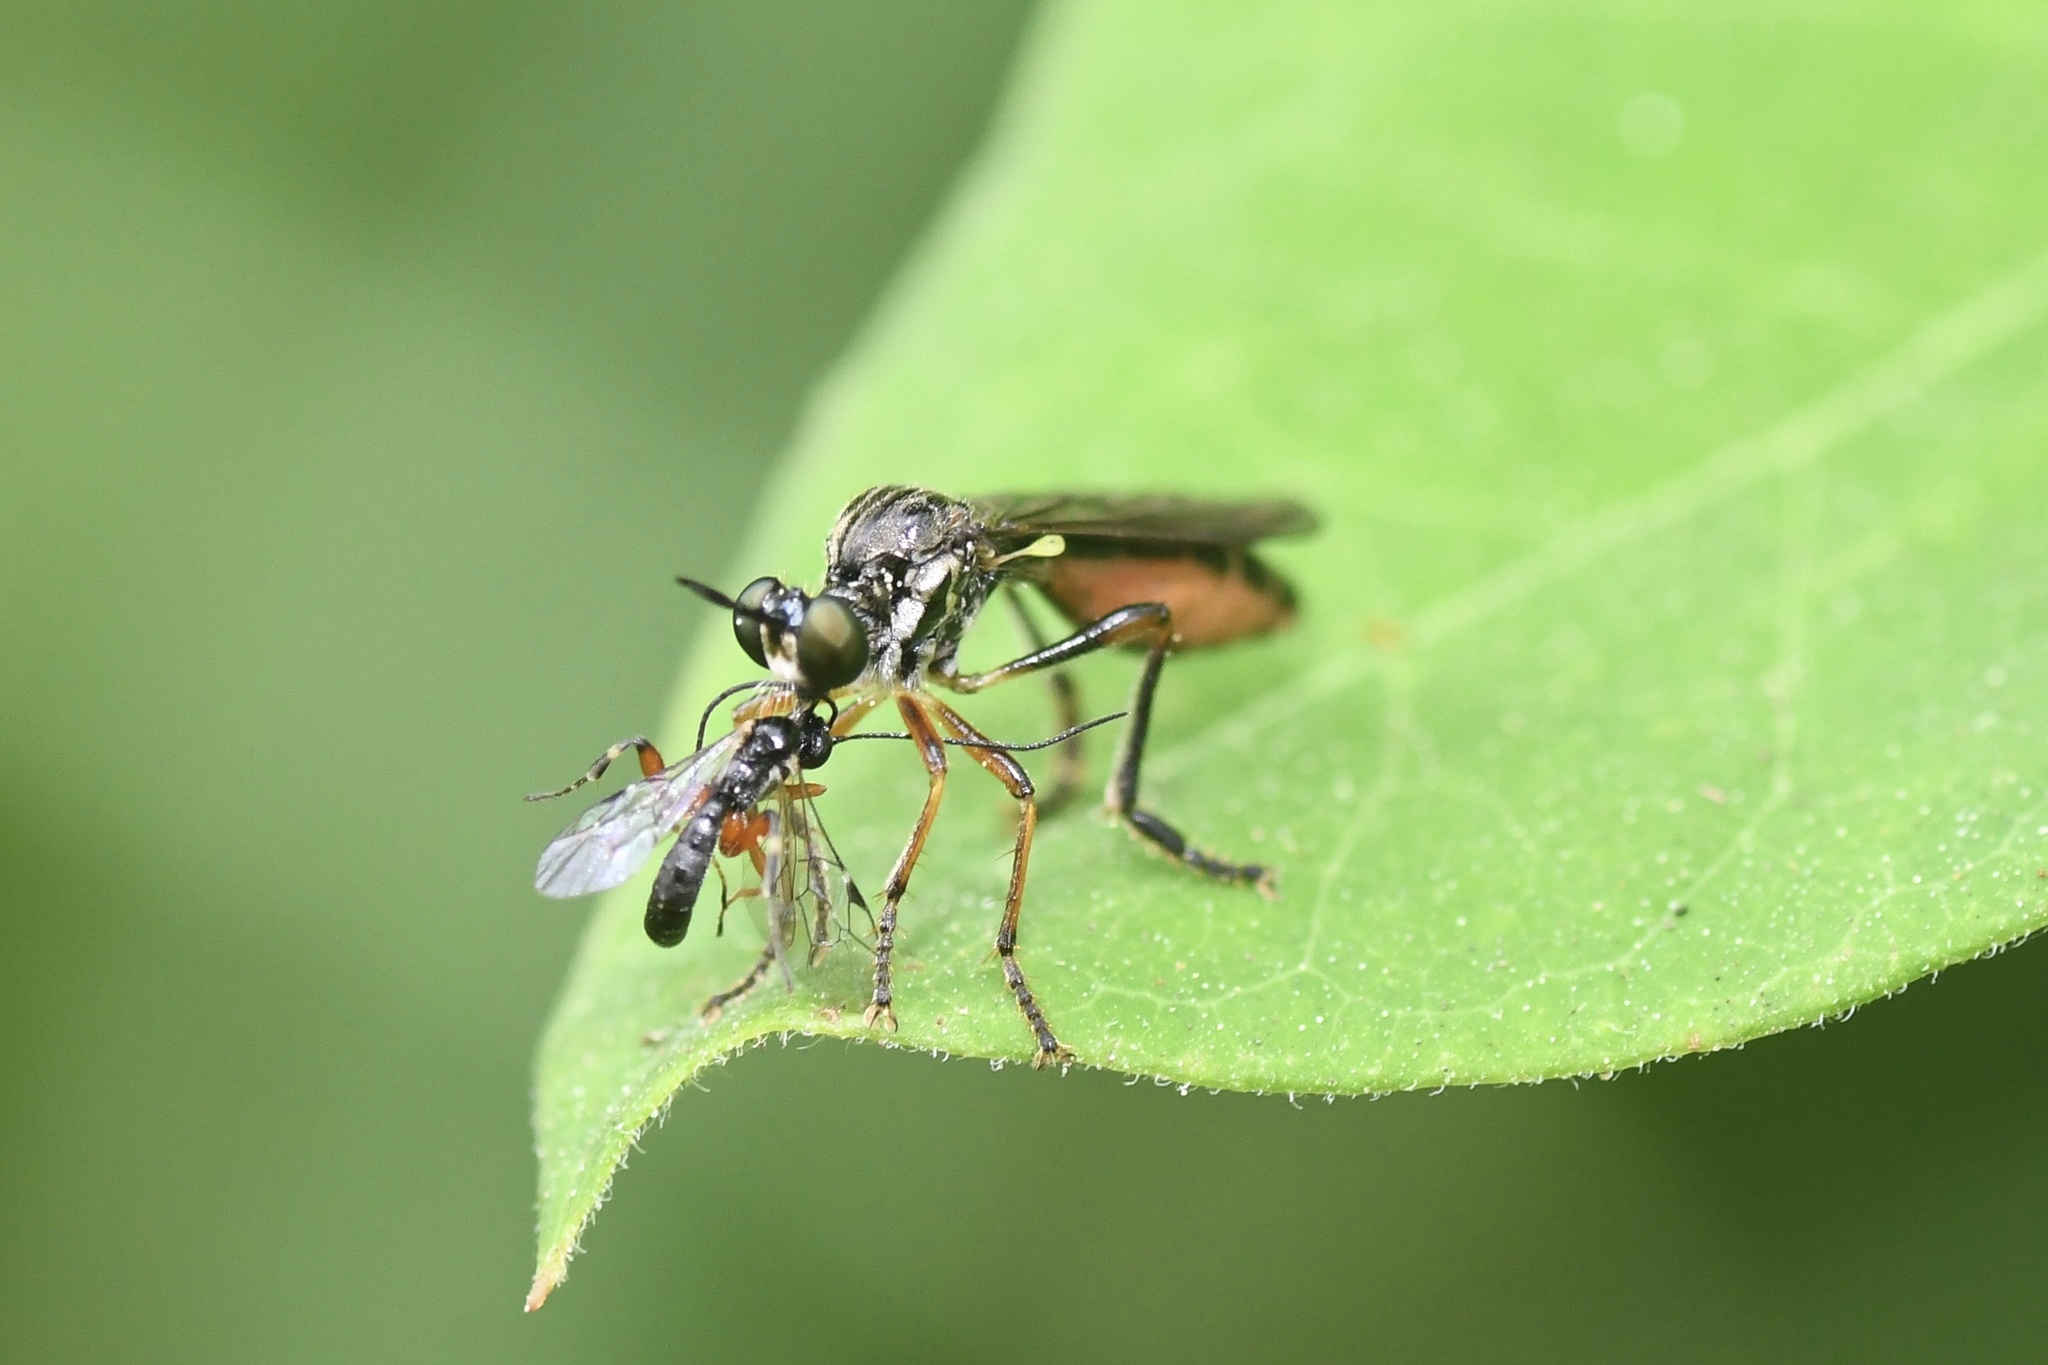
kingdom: Animalia
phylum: Arthropoda
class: Insecta
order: Diptera
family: Asilidae
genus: Dioctria
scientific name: Dioctria hyalipennis
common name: Stripe-legged robberfly
